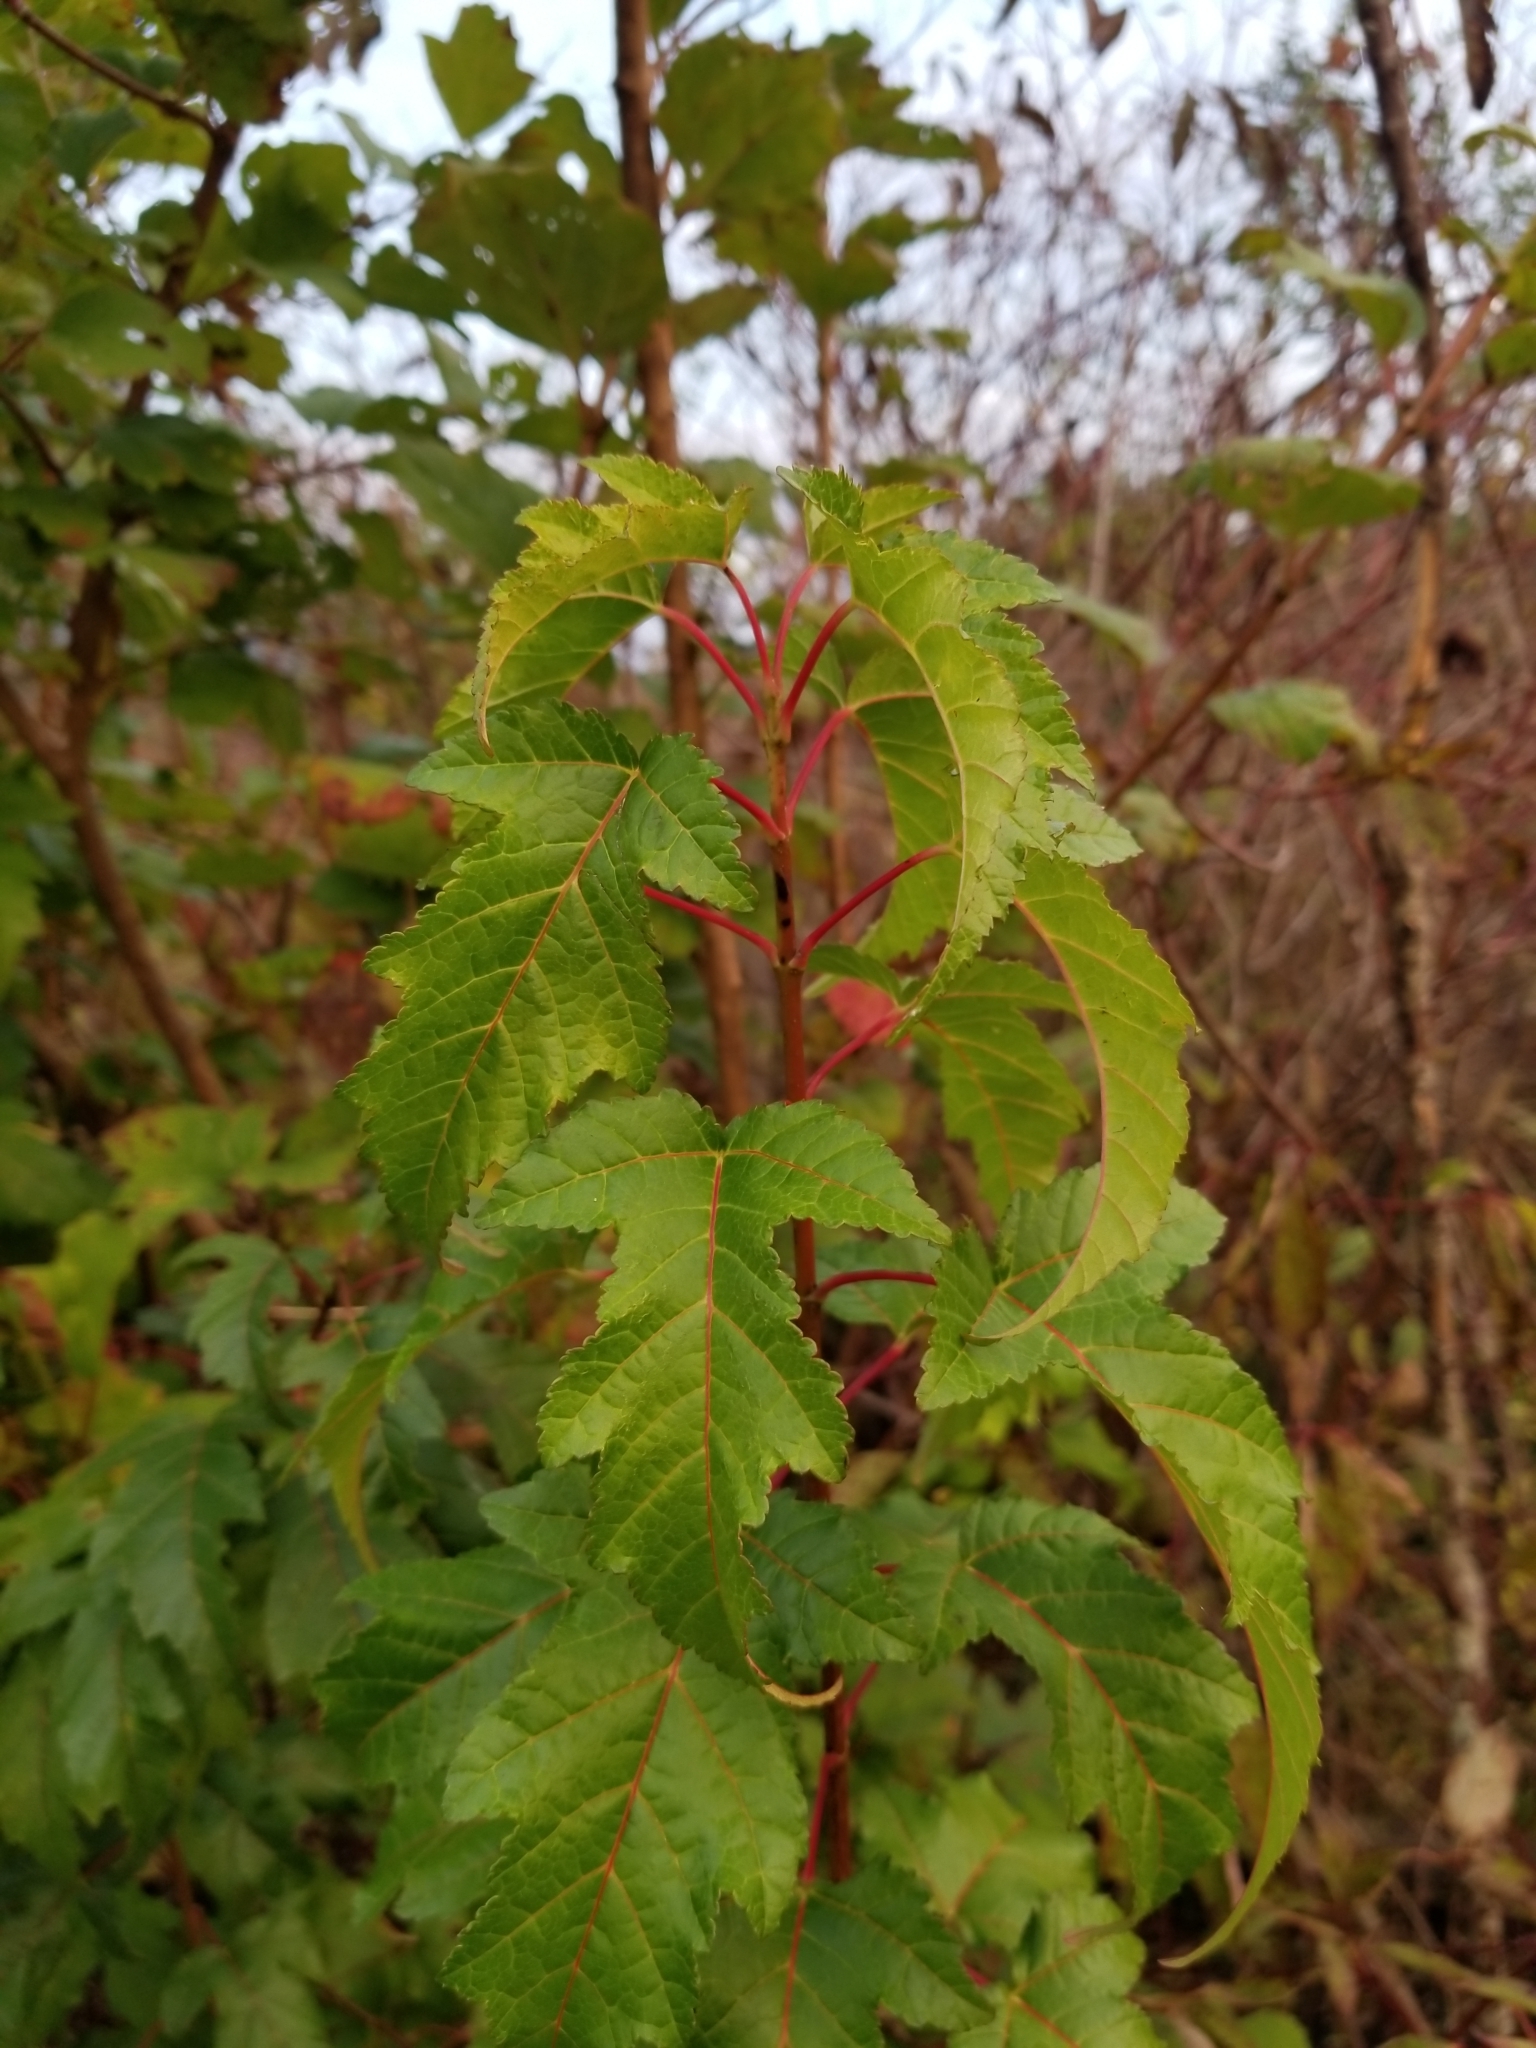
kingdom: Plantae
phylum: Tracheophyta
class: Magnoliopsida
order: Sapindales
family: Sapindaceae
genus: Acer
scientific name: Acer tataricum
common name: Tartar maple
